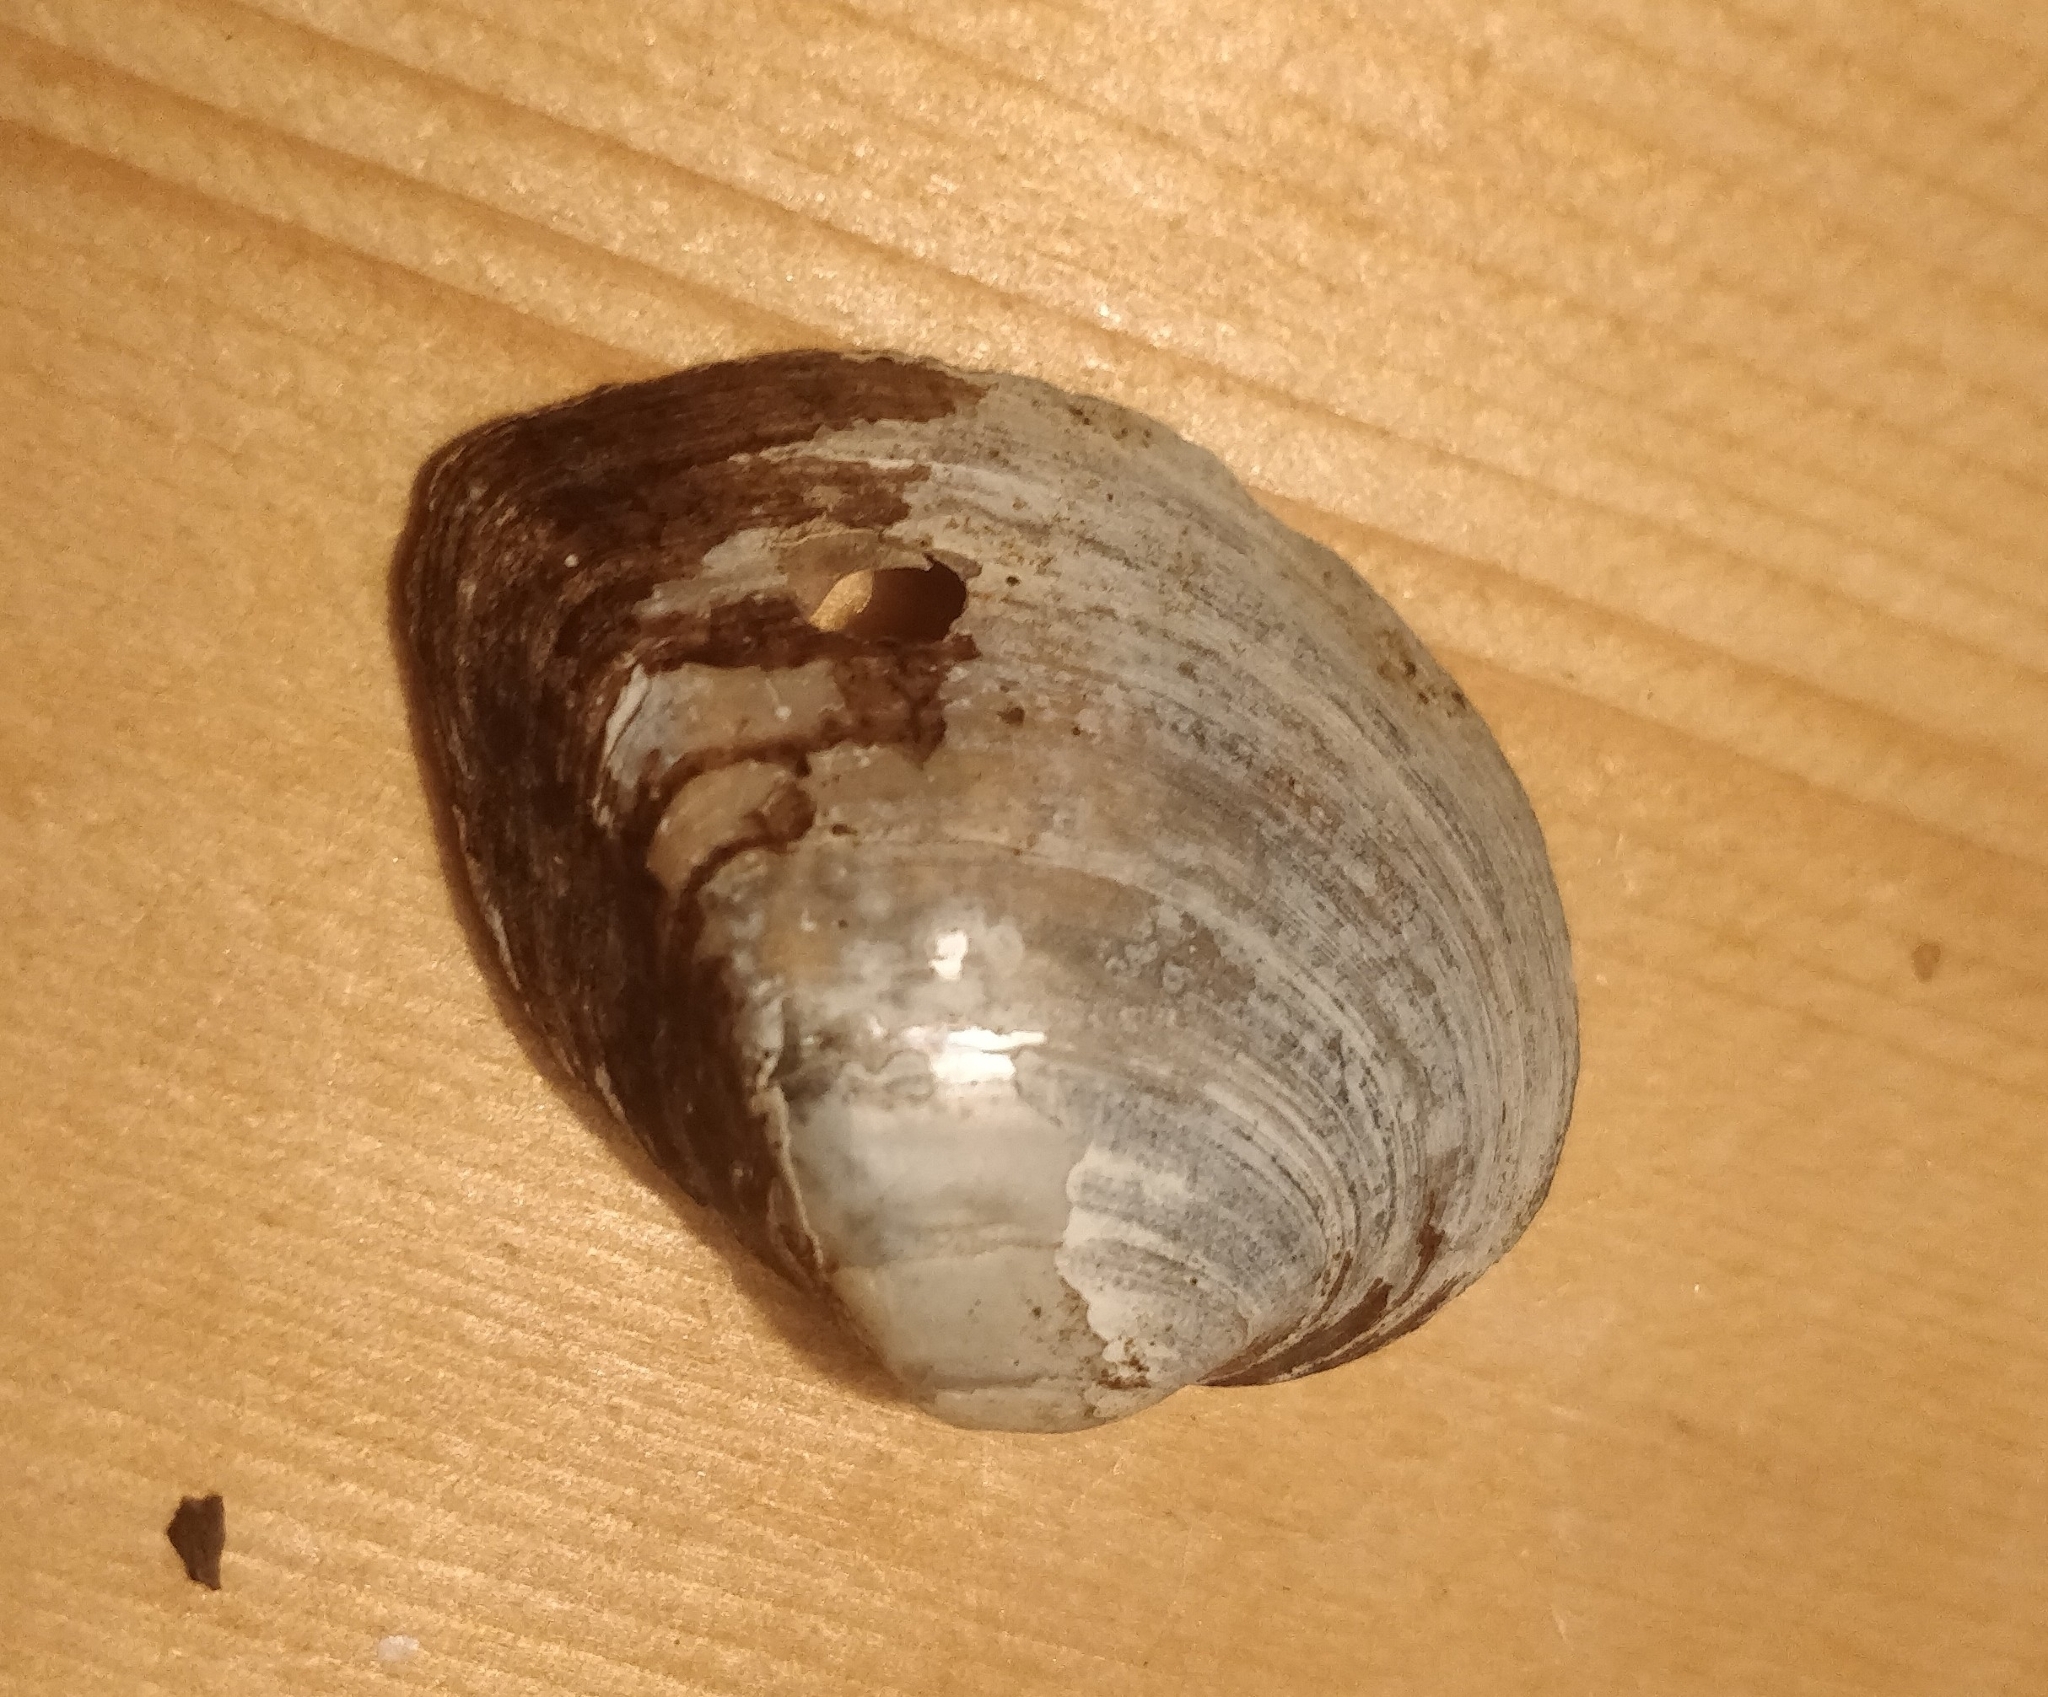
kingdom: Animalia
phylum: Mollusca
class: Bivalvia
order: Unionida
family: Unionidae
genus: Truncilla
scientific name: Truncilla truncata
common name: Deertoe
